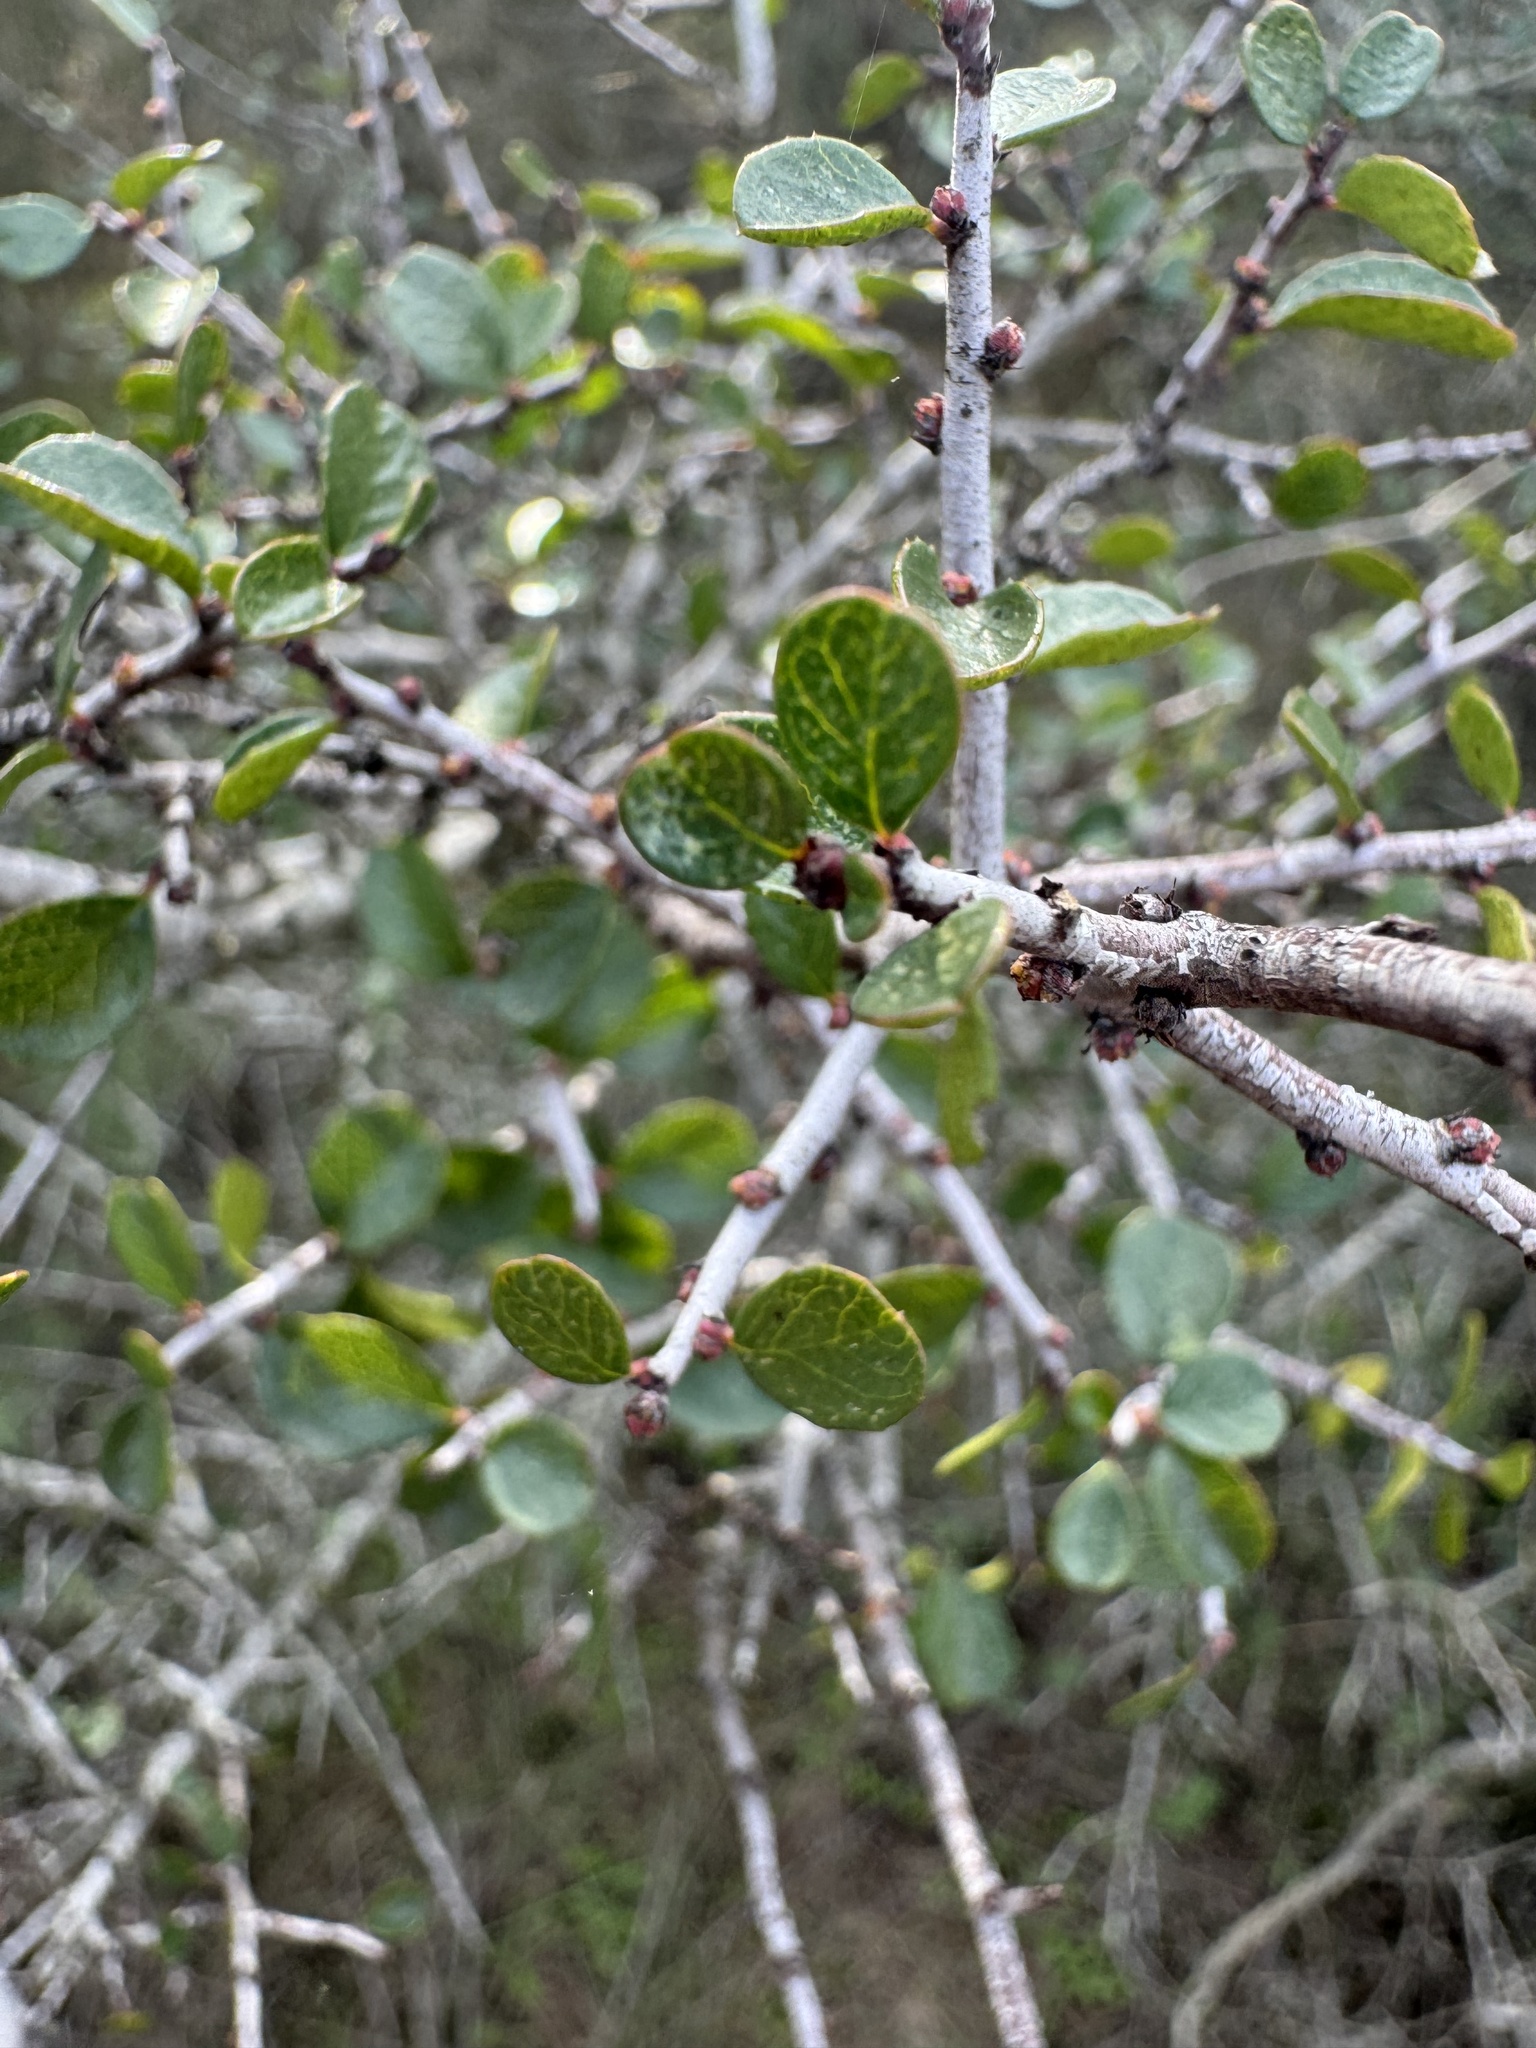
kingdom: Plantae
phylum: Tracheophyta
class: Magnoliopsida
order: Rosales
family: Rhamnaceae
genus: Endotropis
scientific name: Endotropis crocea
